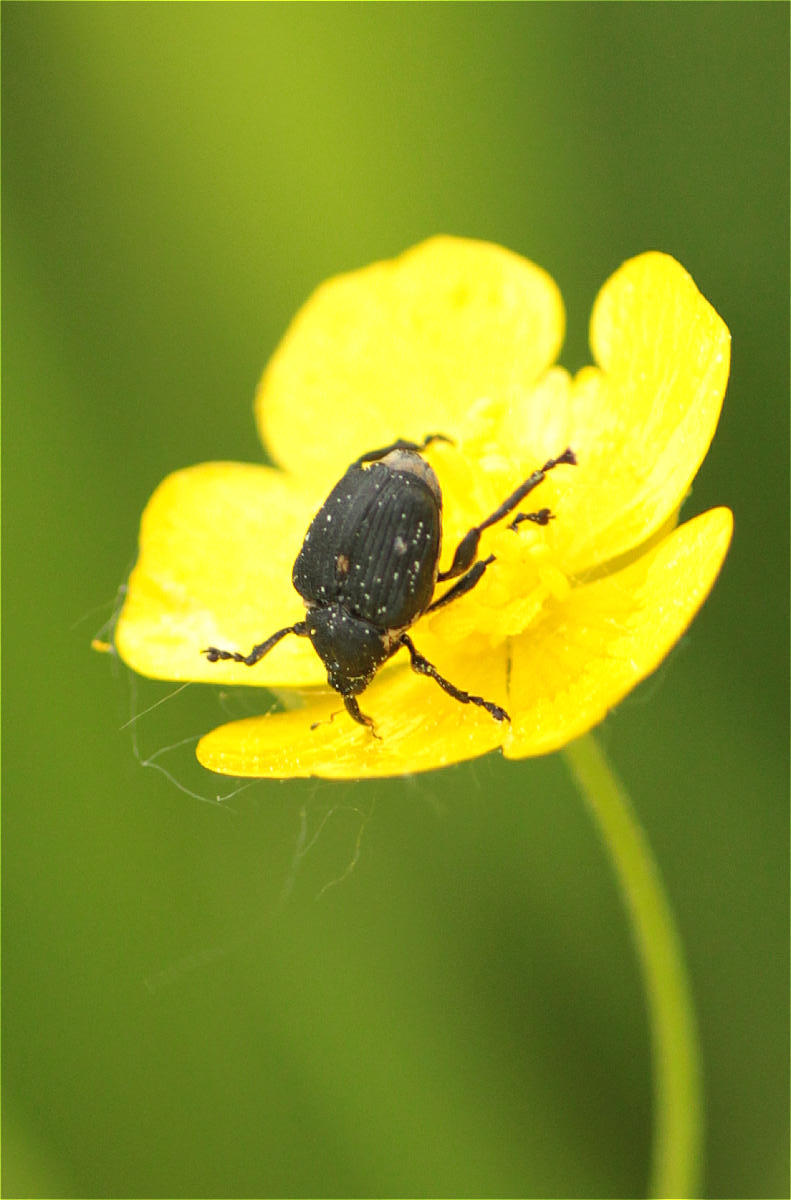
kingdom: Animalia
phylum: Arthropoda
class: Insecta
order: Coleoptera
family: Curculionidae
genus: Mononychus
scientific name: Mononychus punctumalbum
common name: Iris weevil
